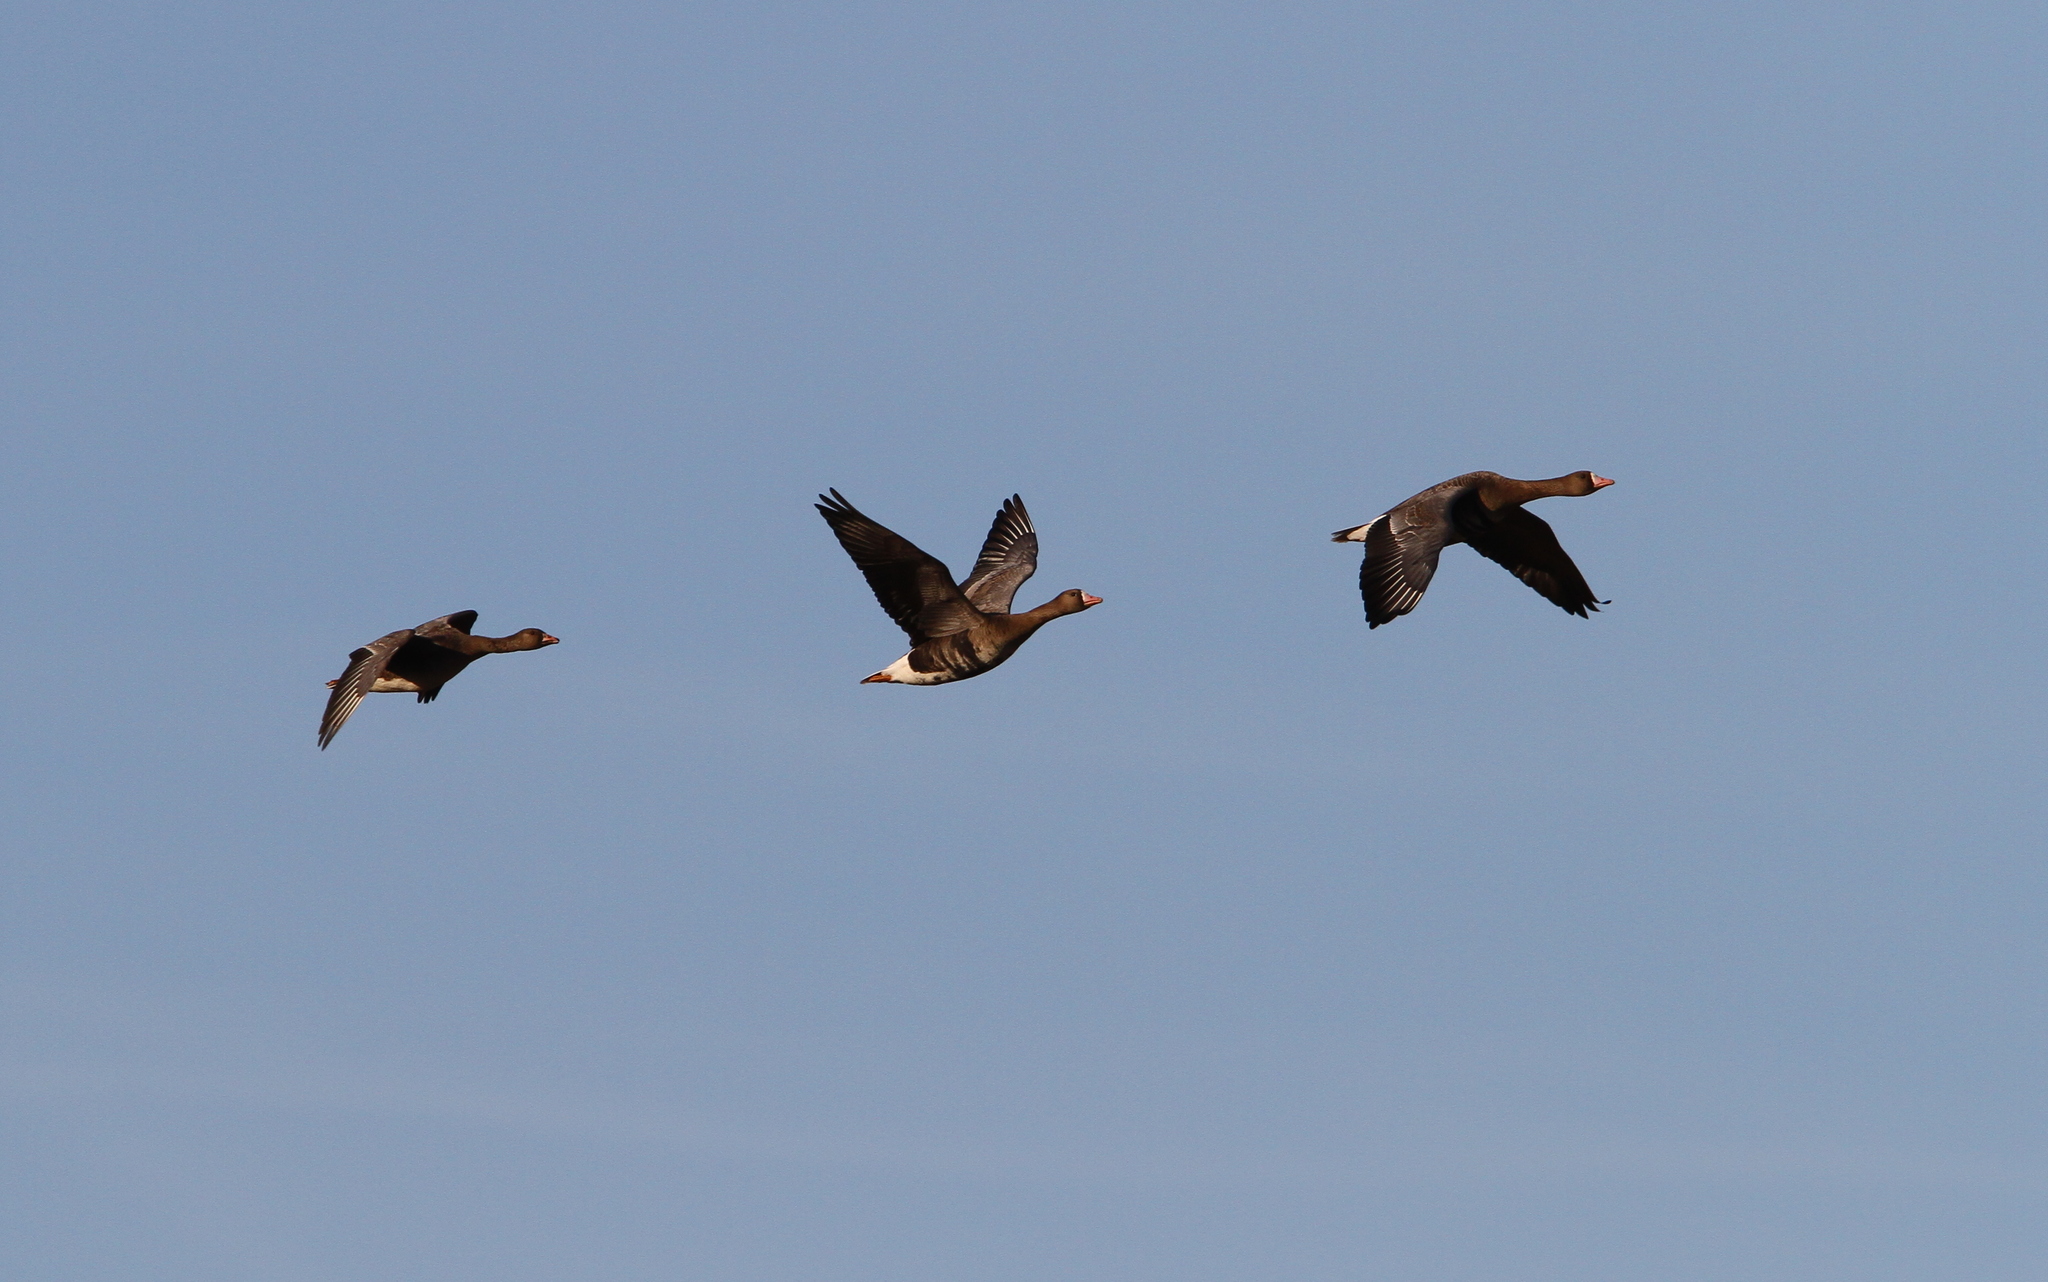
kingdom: Animalia
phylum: Chordata
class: Aves
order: Anseriformes
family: Anatidae
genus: Anser
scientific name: Anser albifrons
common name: Greater white-fronted goose
